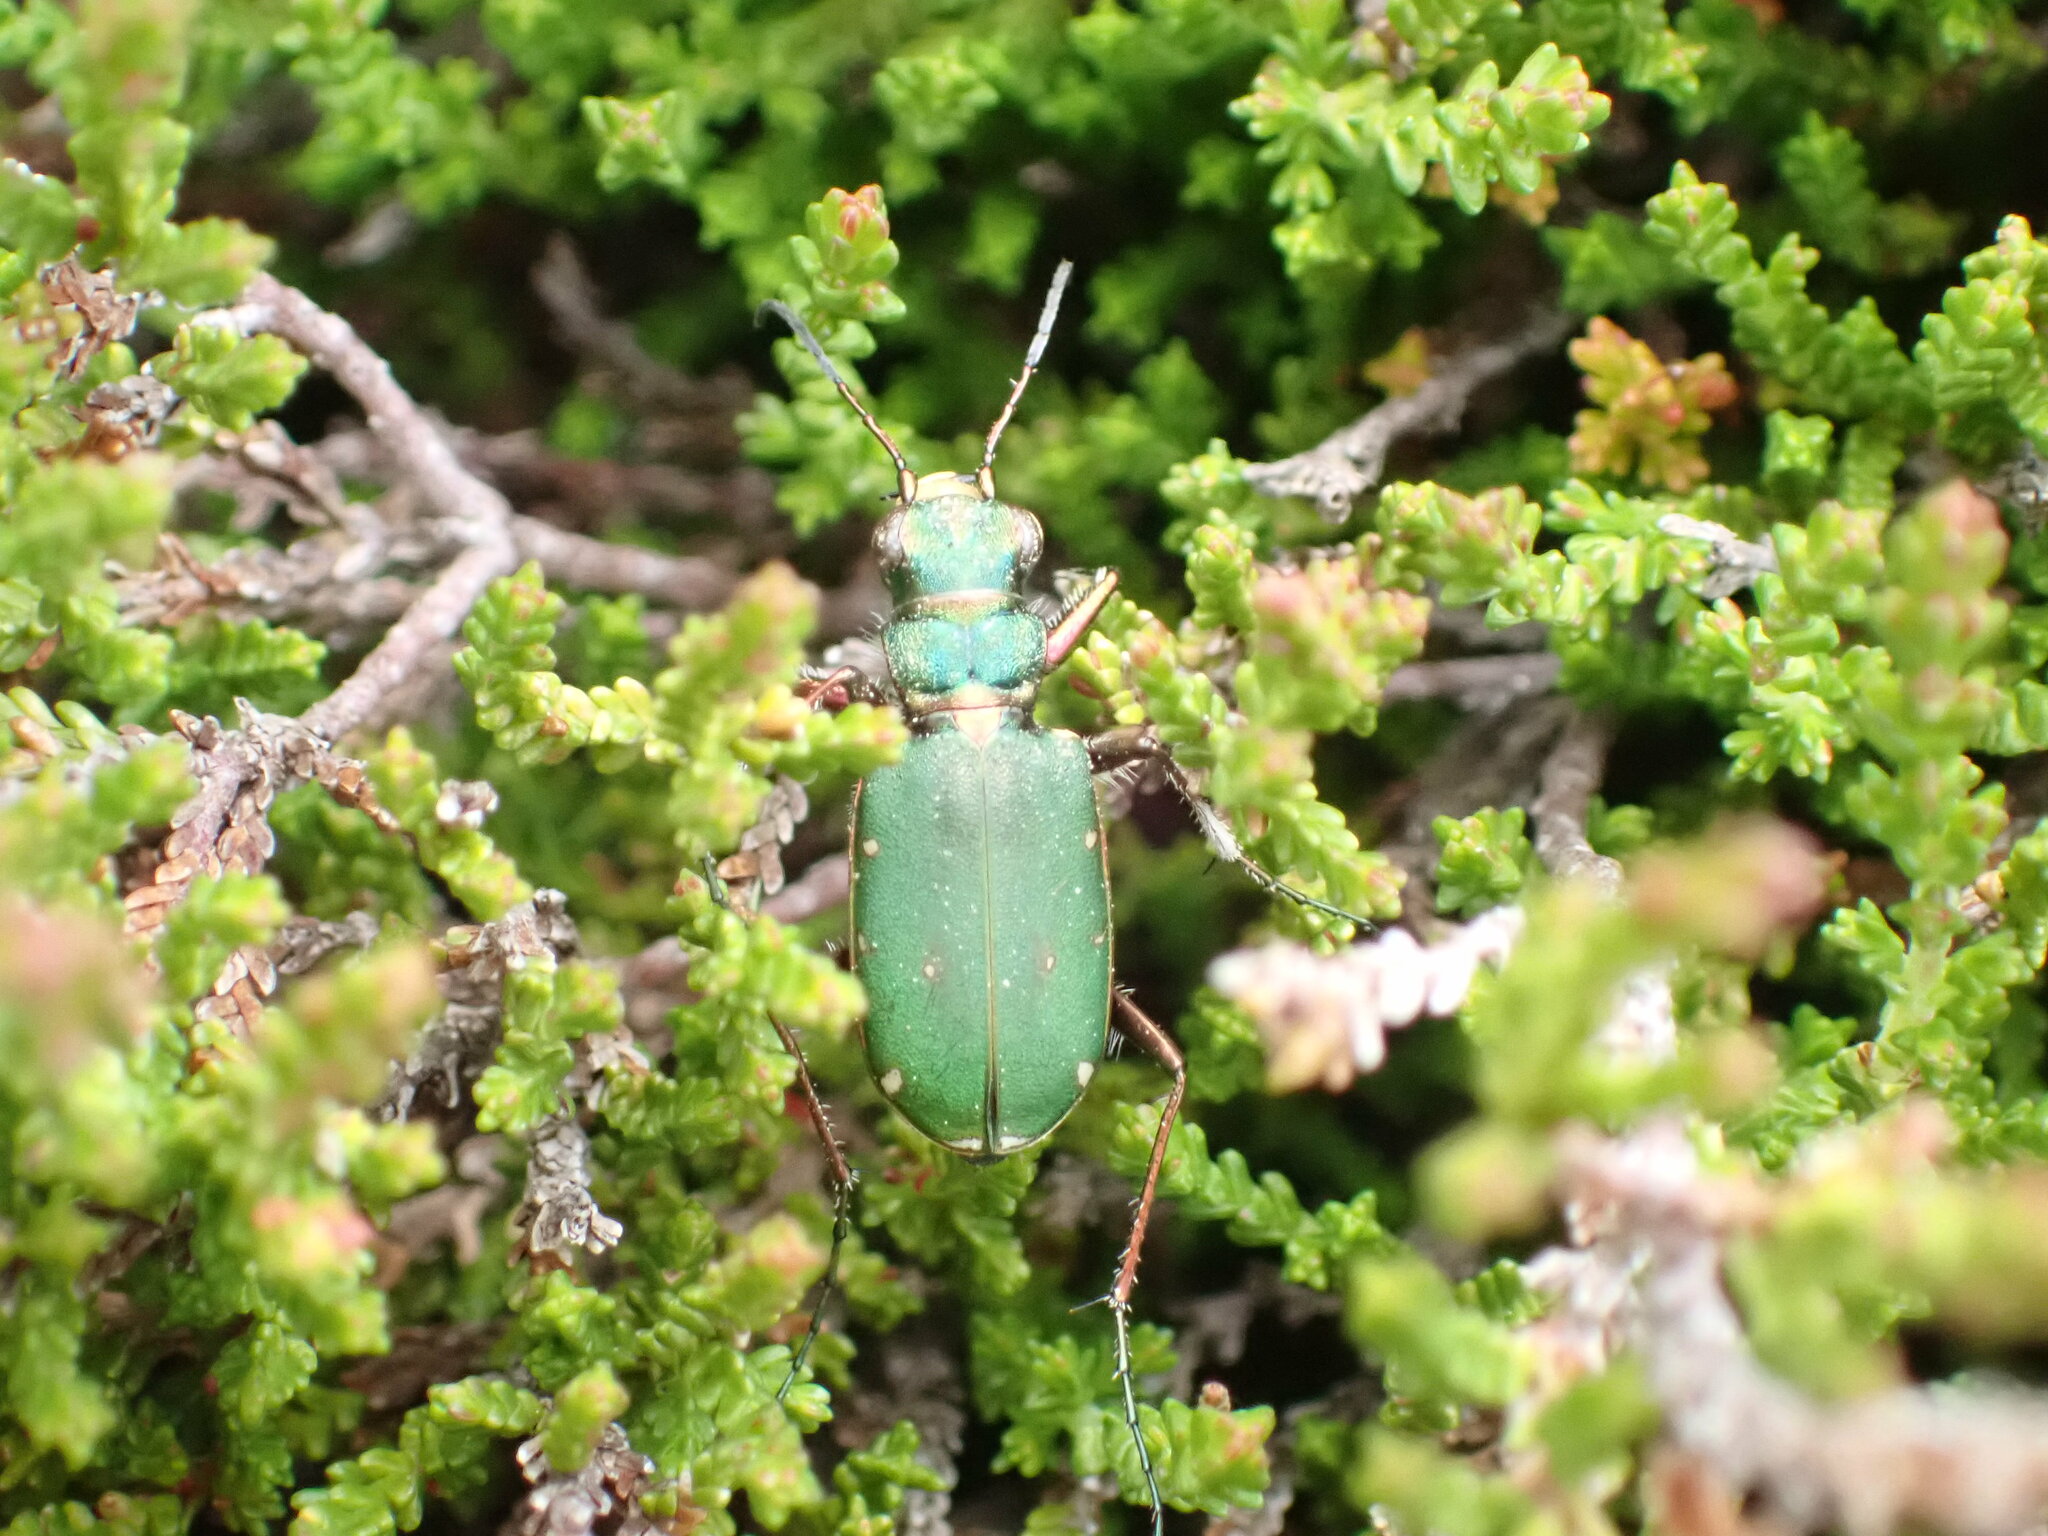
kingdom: Animalia
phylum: Arthropoda
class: Insecta
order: Coleoptera
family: Carabidae
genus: Cicindela
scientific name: Cicindela campestris
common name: Common tiger beetle
